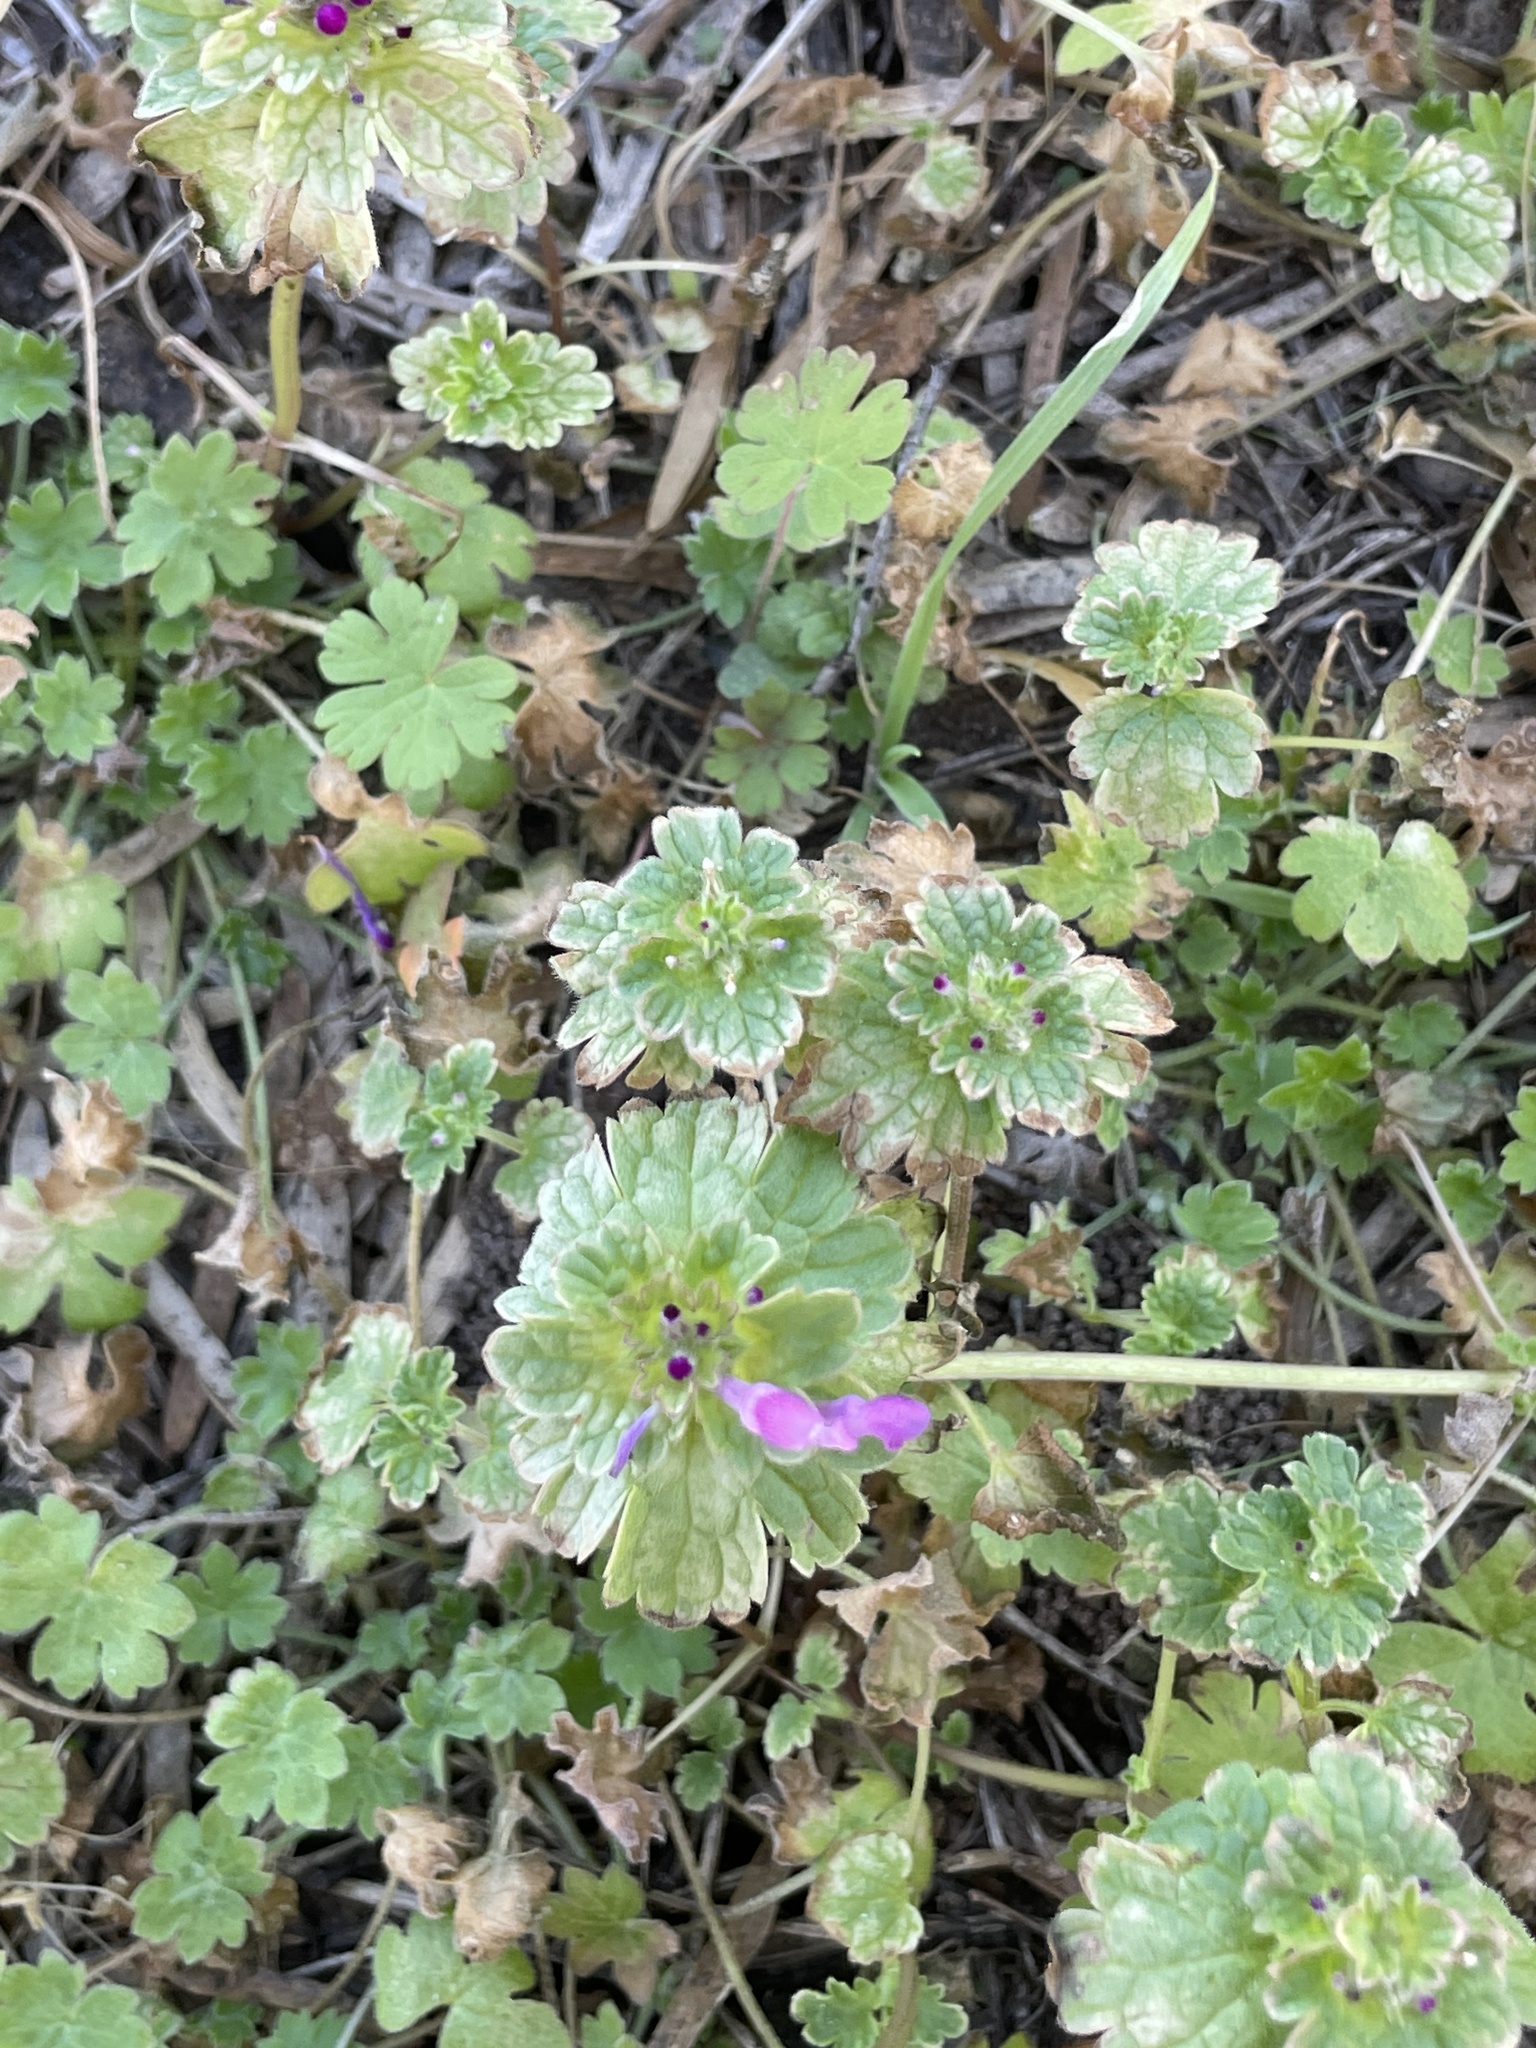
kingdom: Plantae
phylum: Tracheophyta
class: Magnoliopsida
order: Lamiales
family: Lamiaceae
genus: Lamium
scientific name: Lamium amplexicaule
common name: Henbit dead-nettle
